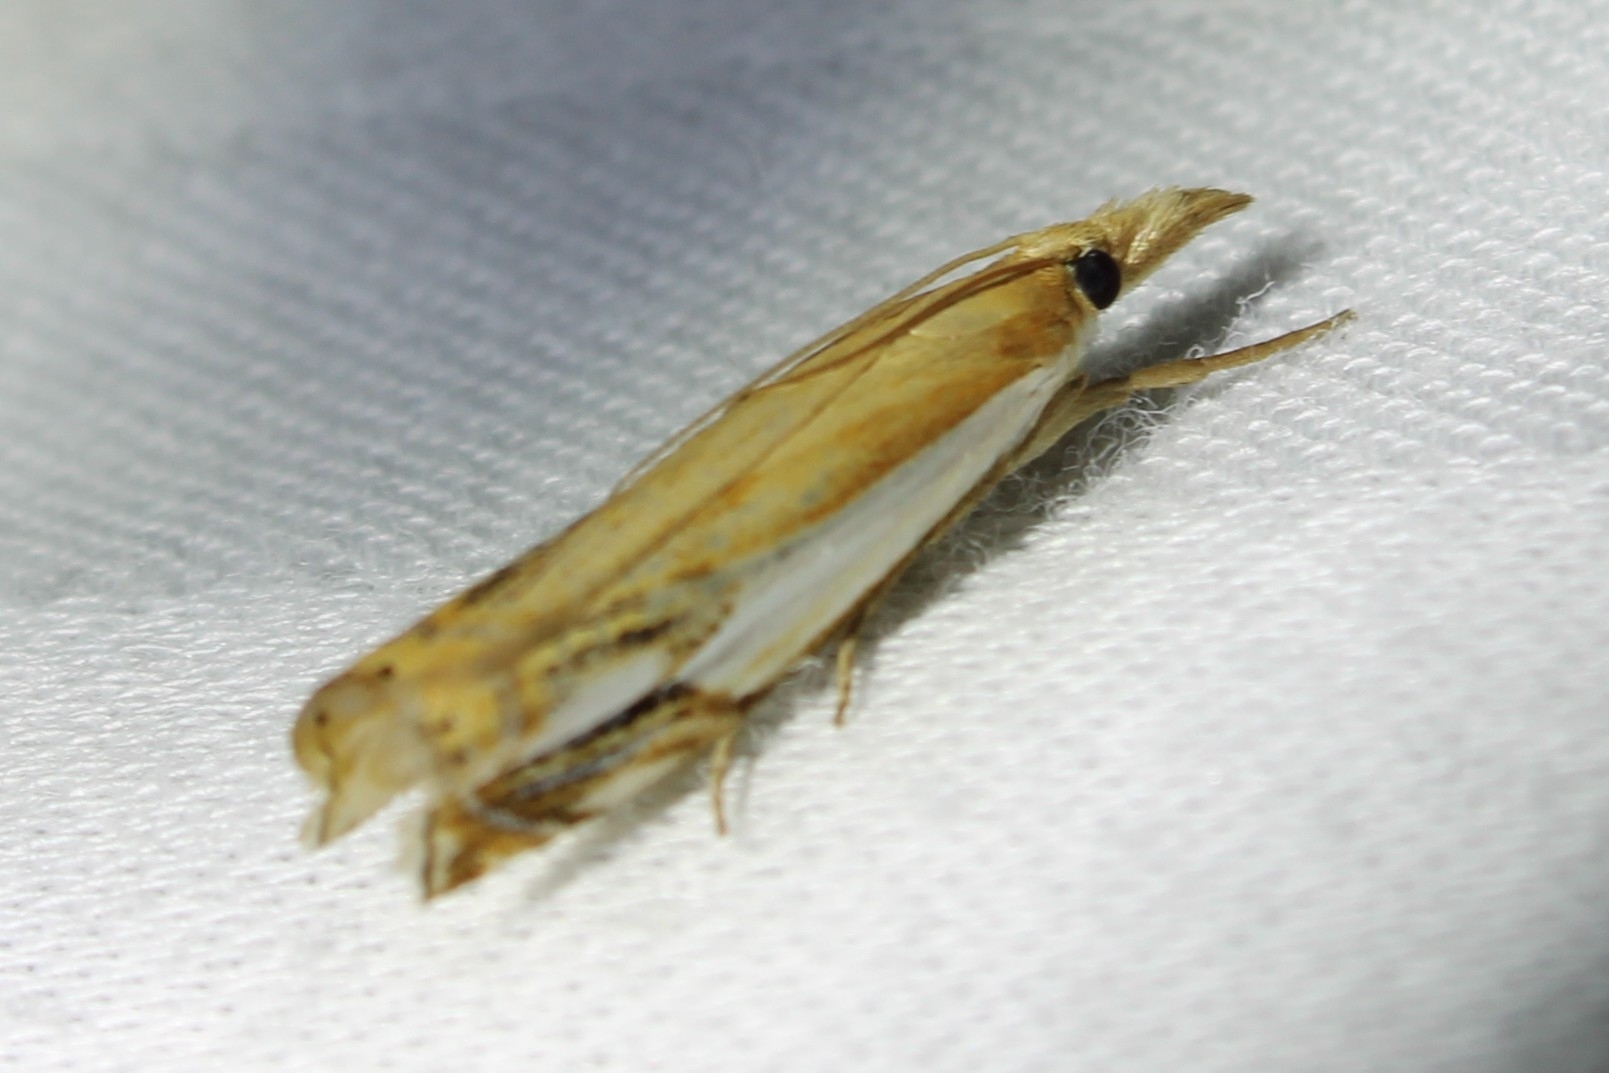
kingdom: Animalia
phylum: Arthropoda
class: Insecta
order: Lepidoptera
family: Crambidae
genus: Crambus
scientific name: Crambus agitatellus
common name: Double-banded grass-veneer
